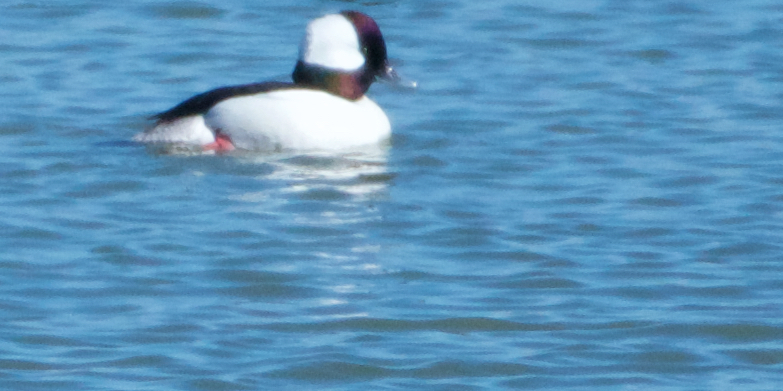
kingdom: Animalia
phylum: Chordata
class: Aves
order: Anseriformes
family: Anatidae
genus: Bucephala
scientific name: Bucephala albeola
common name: Bufflehead
